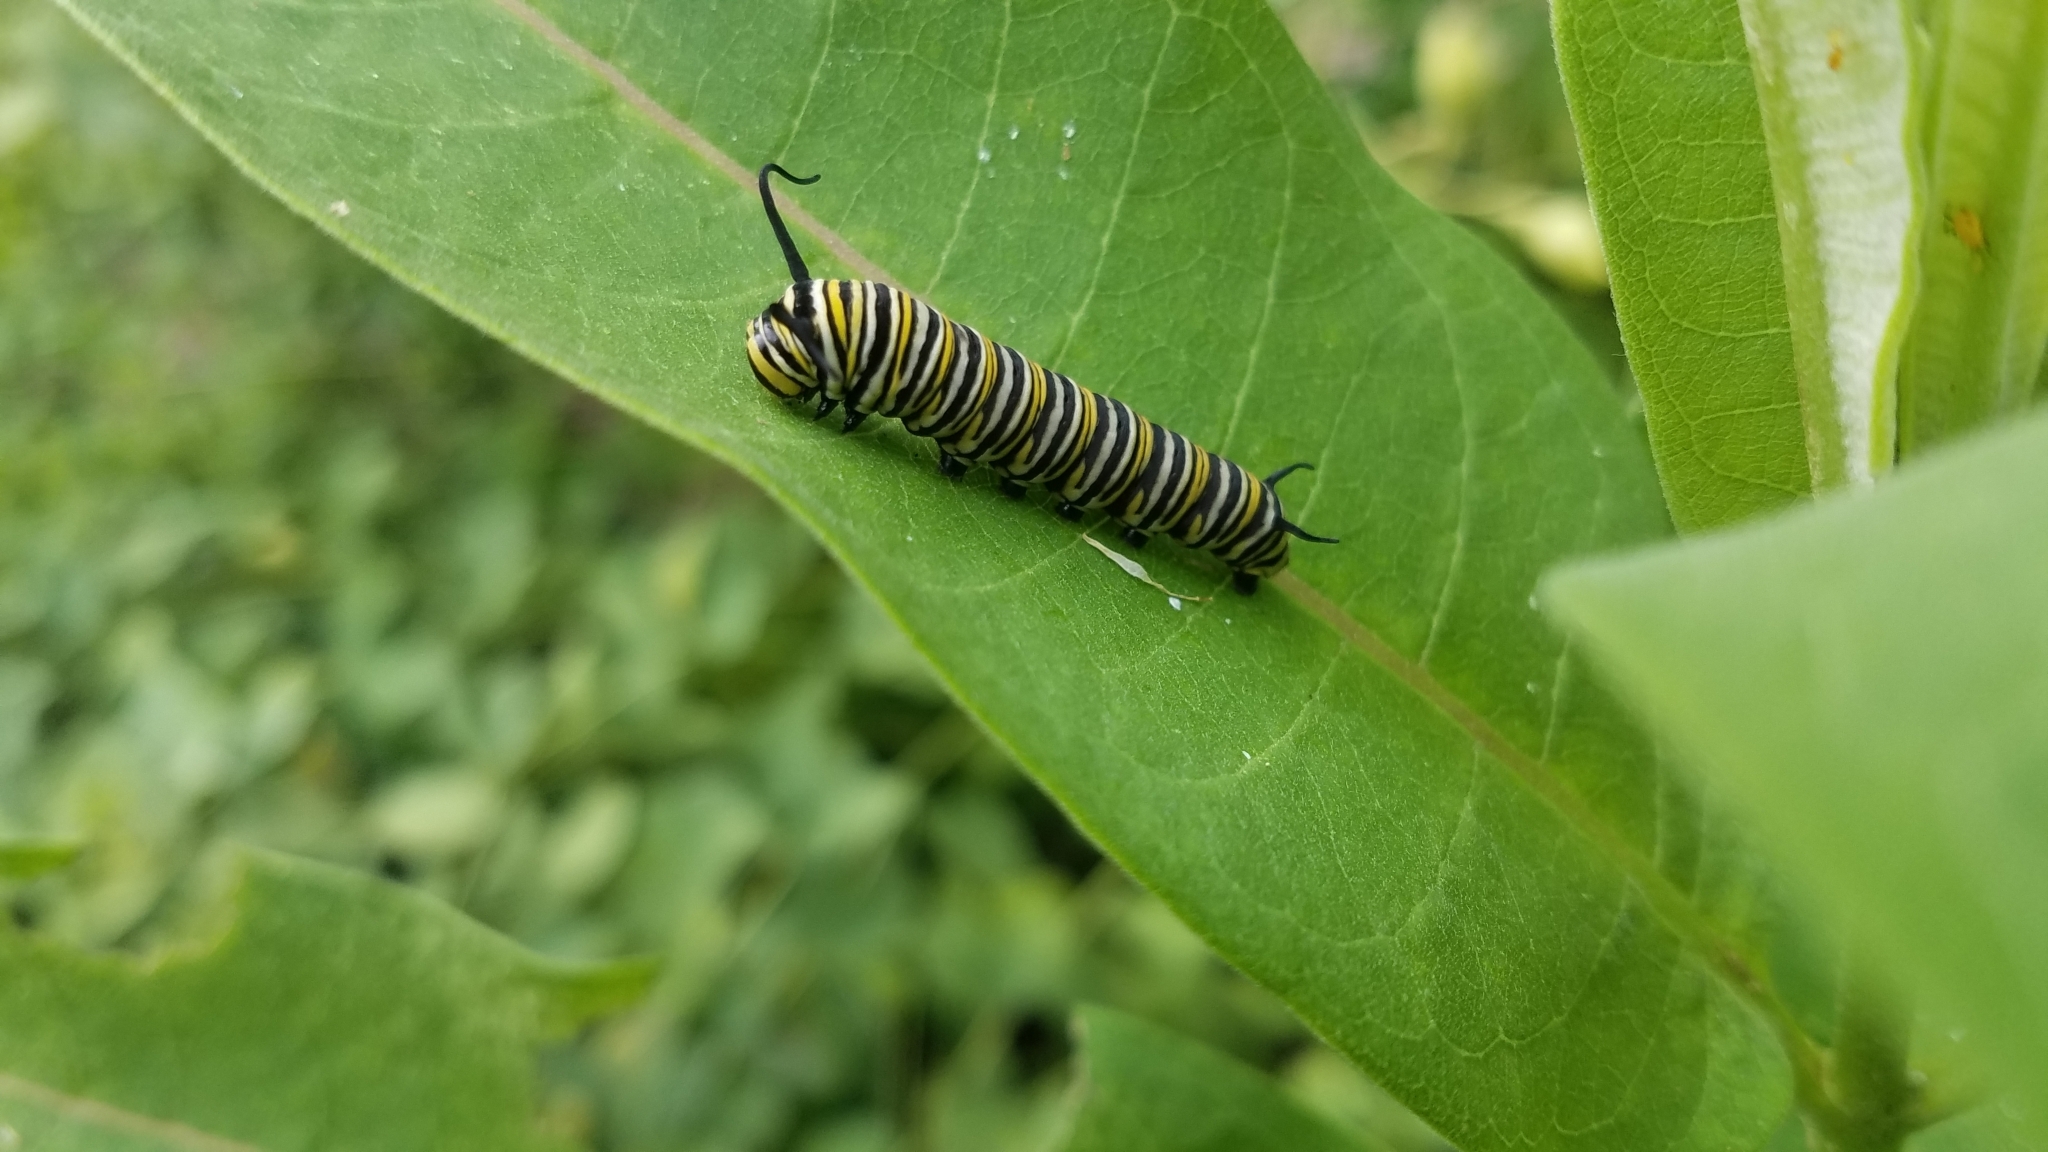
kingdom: Animalia
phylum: Arthropoda
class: Insecta
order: Lepidoptera
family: Nymphalidae
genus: Danaus
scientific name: Danaus plexippus
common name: Monarch
